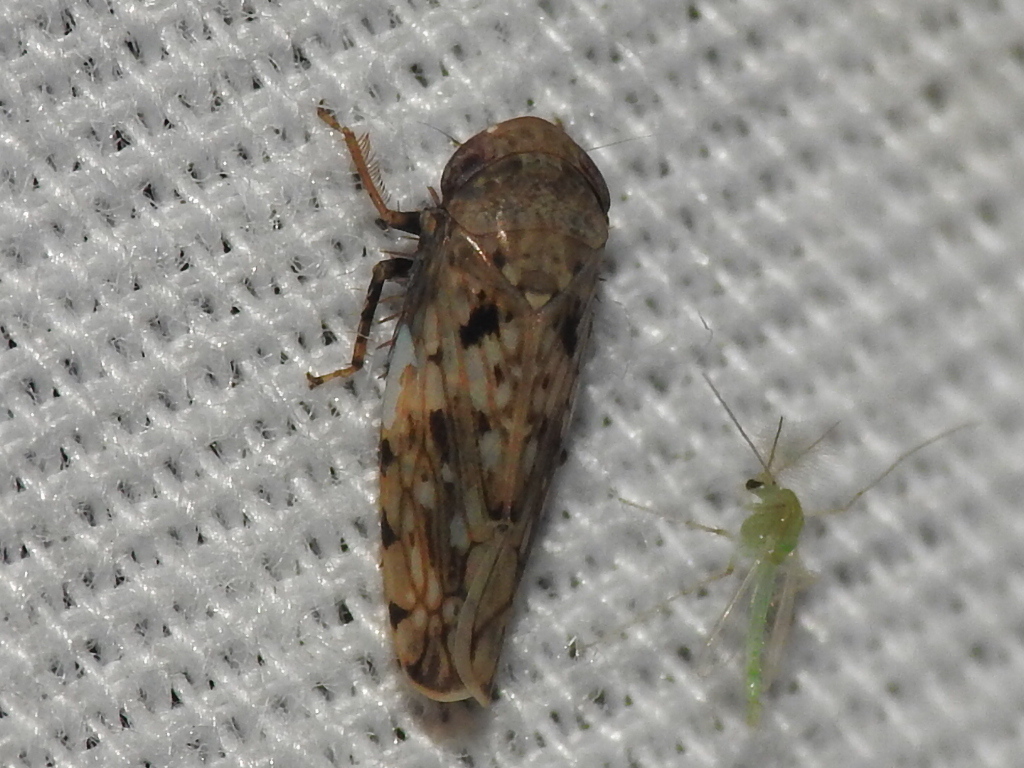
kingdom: Animalia
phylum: Arthropoda
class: Insecta
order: Hemiptera
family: Cicadellidae
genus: Menosoma
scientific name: Menosoma cinctum
